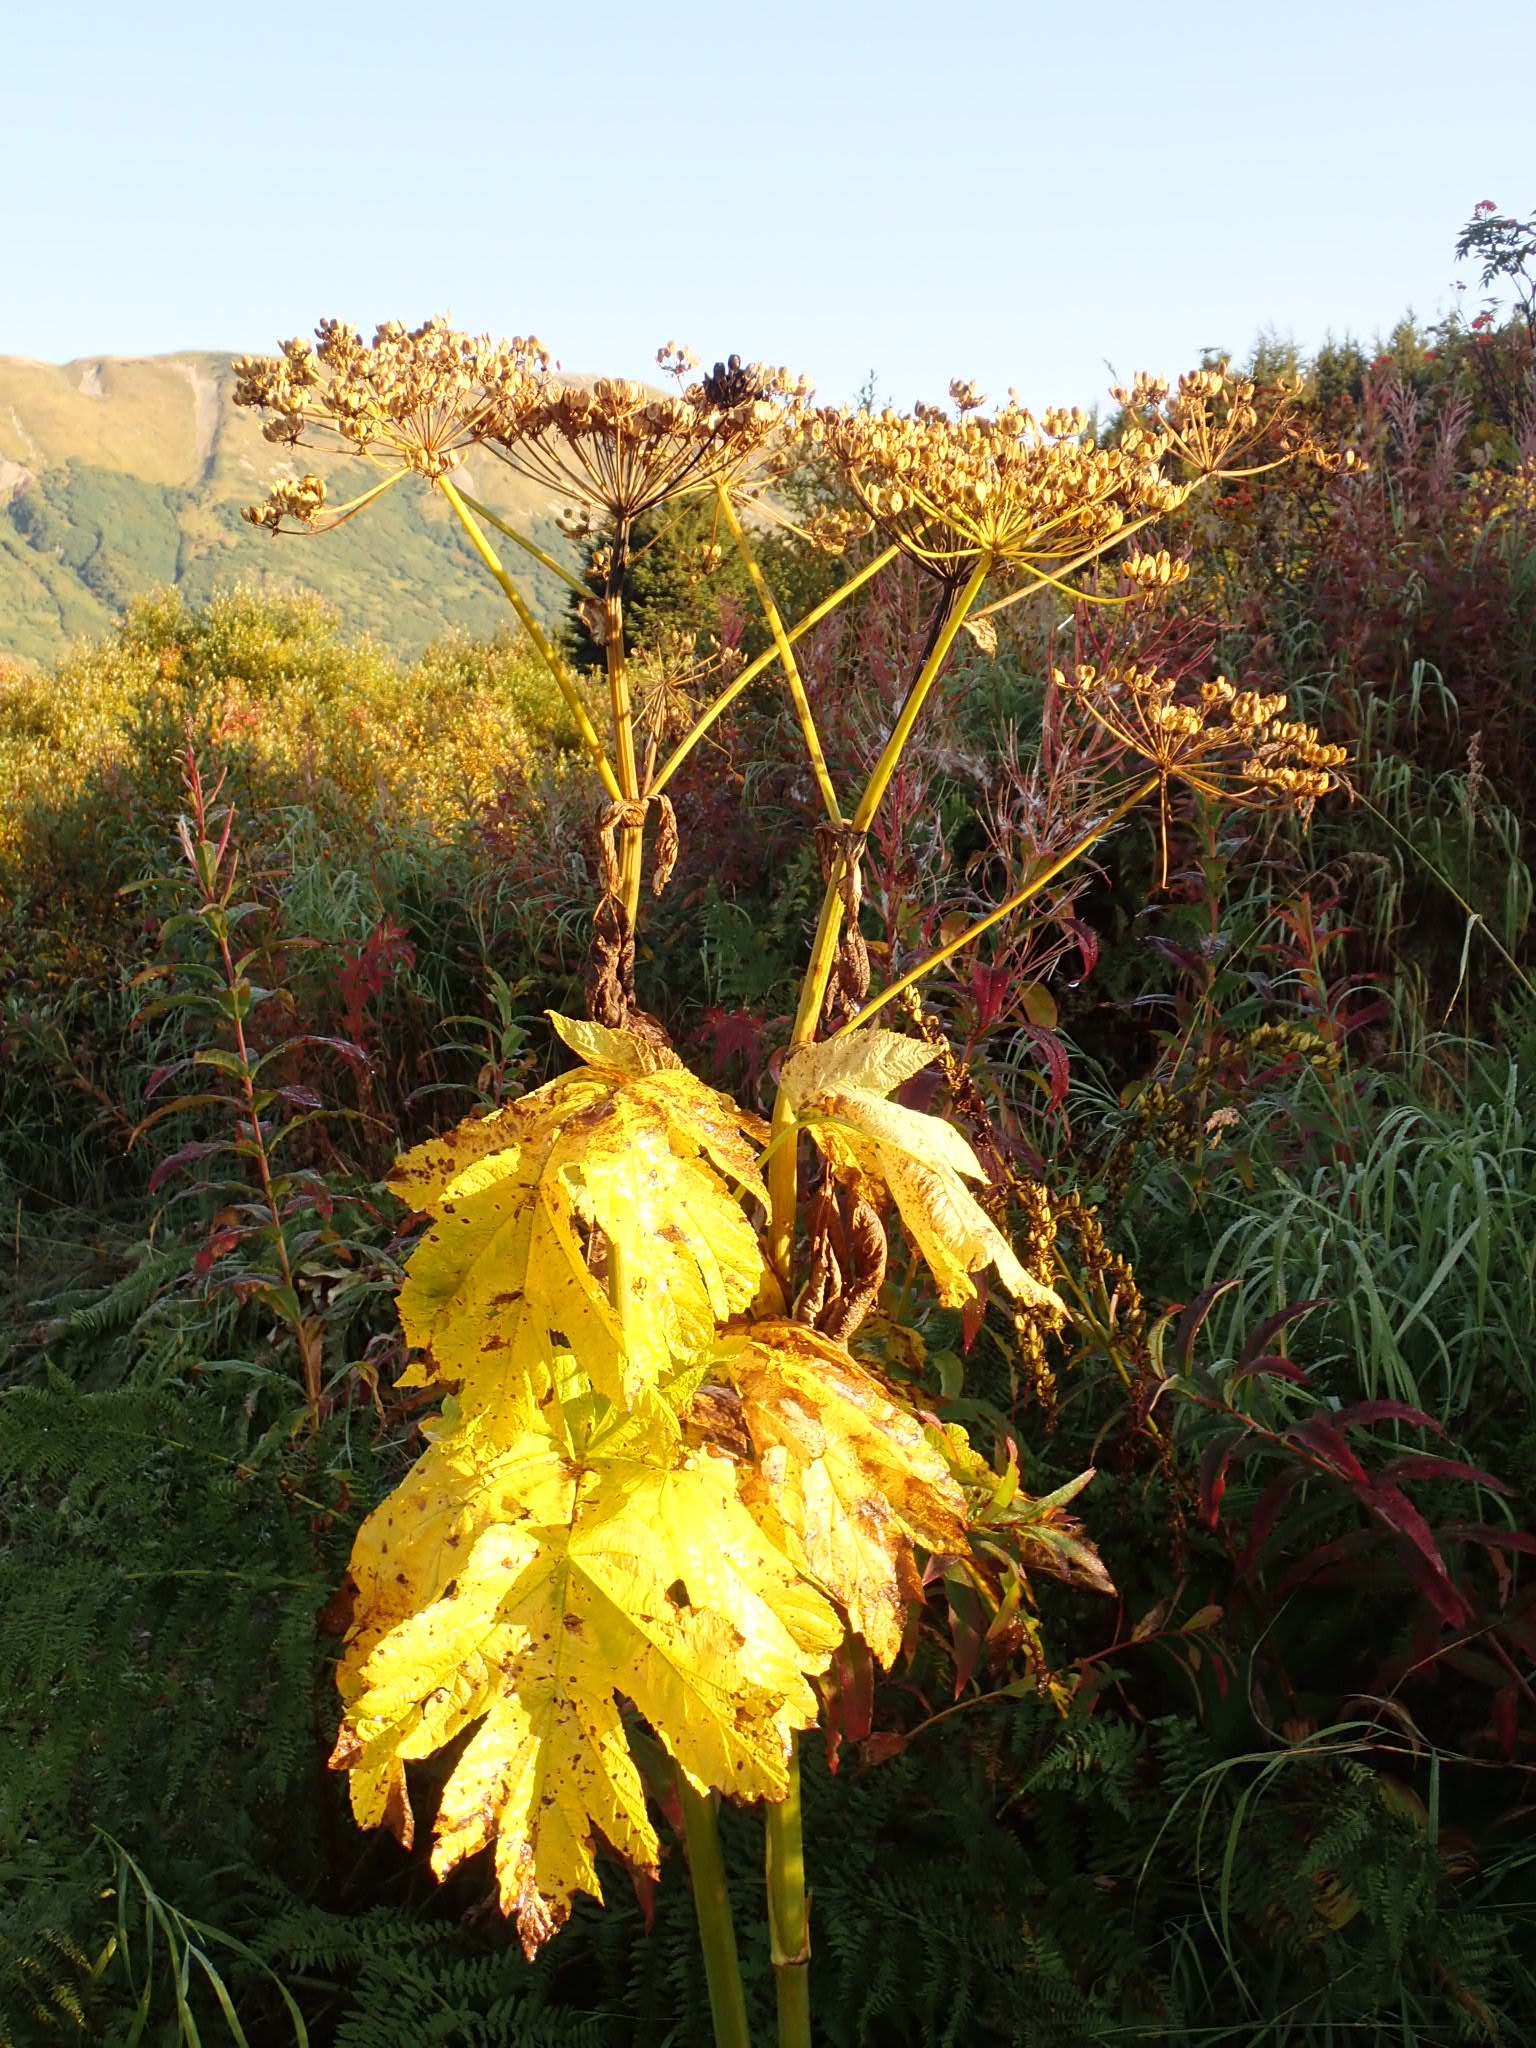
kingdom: Plantae
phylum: Tracheophyta
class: Magnoliopsida
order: Apiales
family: Apiaceae
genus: Heracleum
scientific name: Heracleum maximum
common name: American cow parsnip
